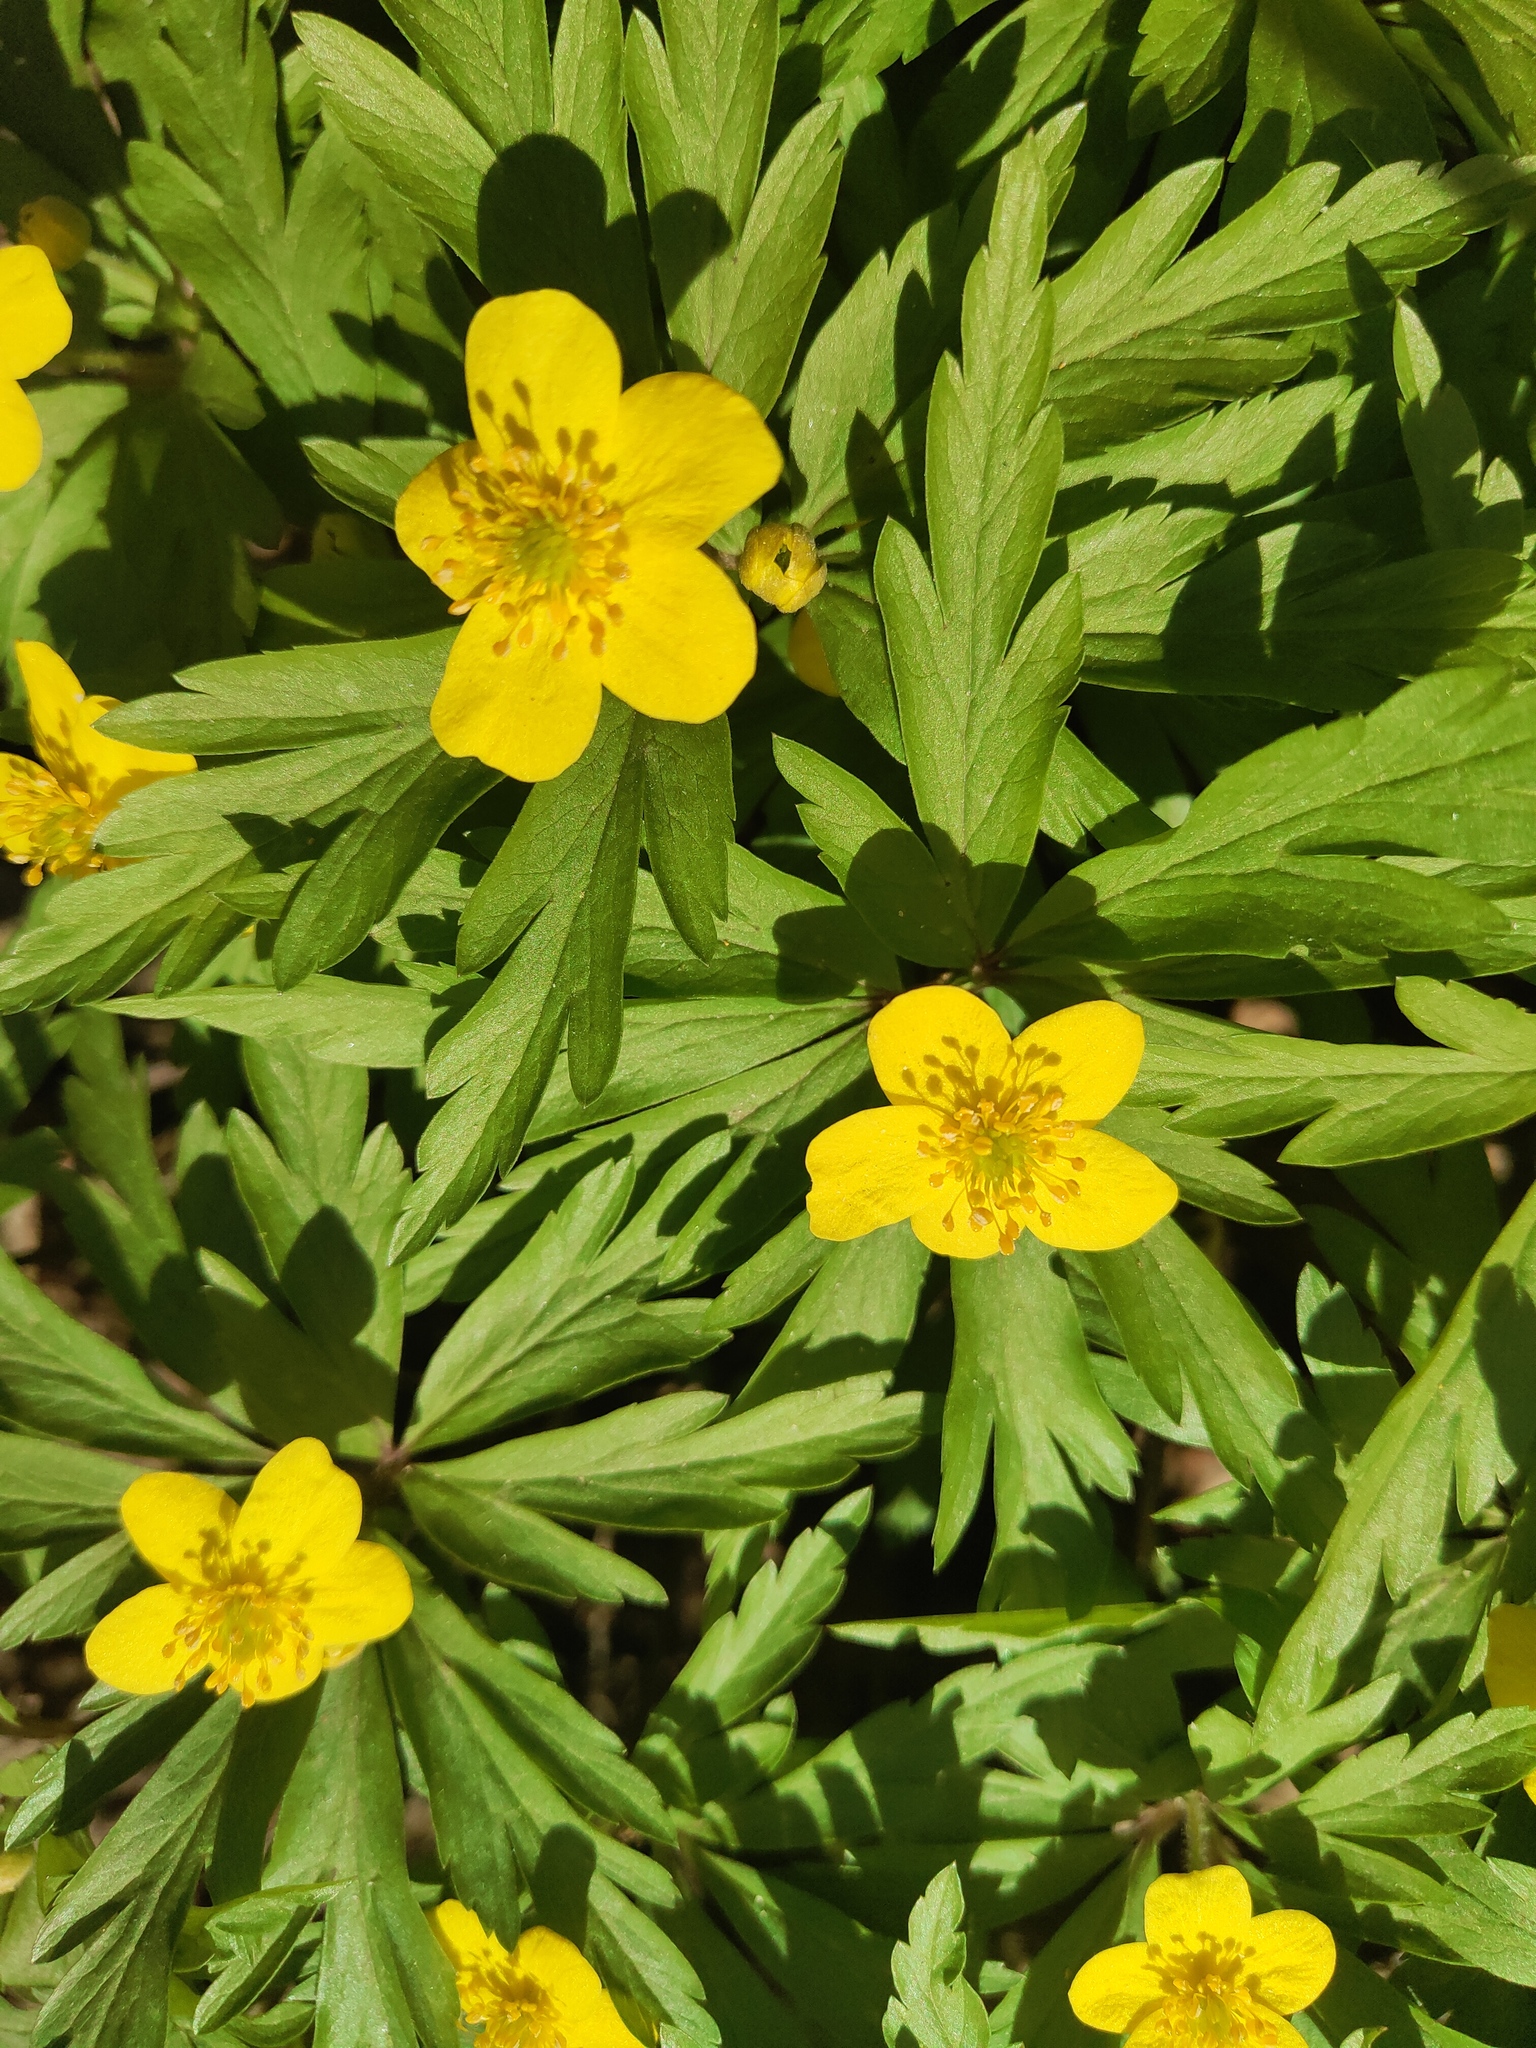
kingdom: Plantae
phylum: Tracheophyta
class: Magnoliopsida
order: Ranunculales
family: Ranunculaceae
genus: Anemone
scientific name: Anemone ranunculoides
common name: Yellow anemone
